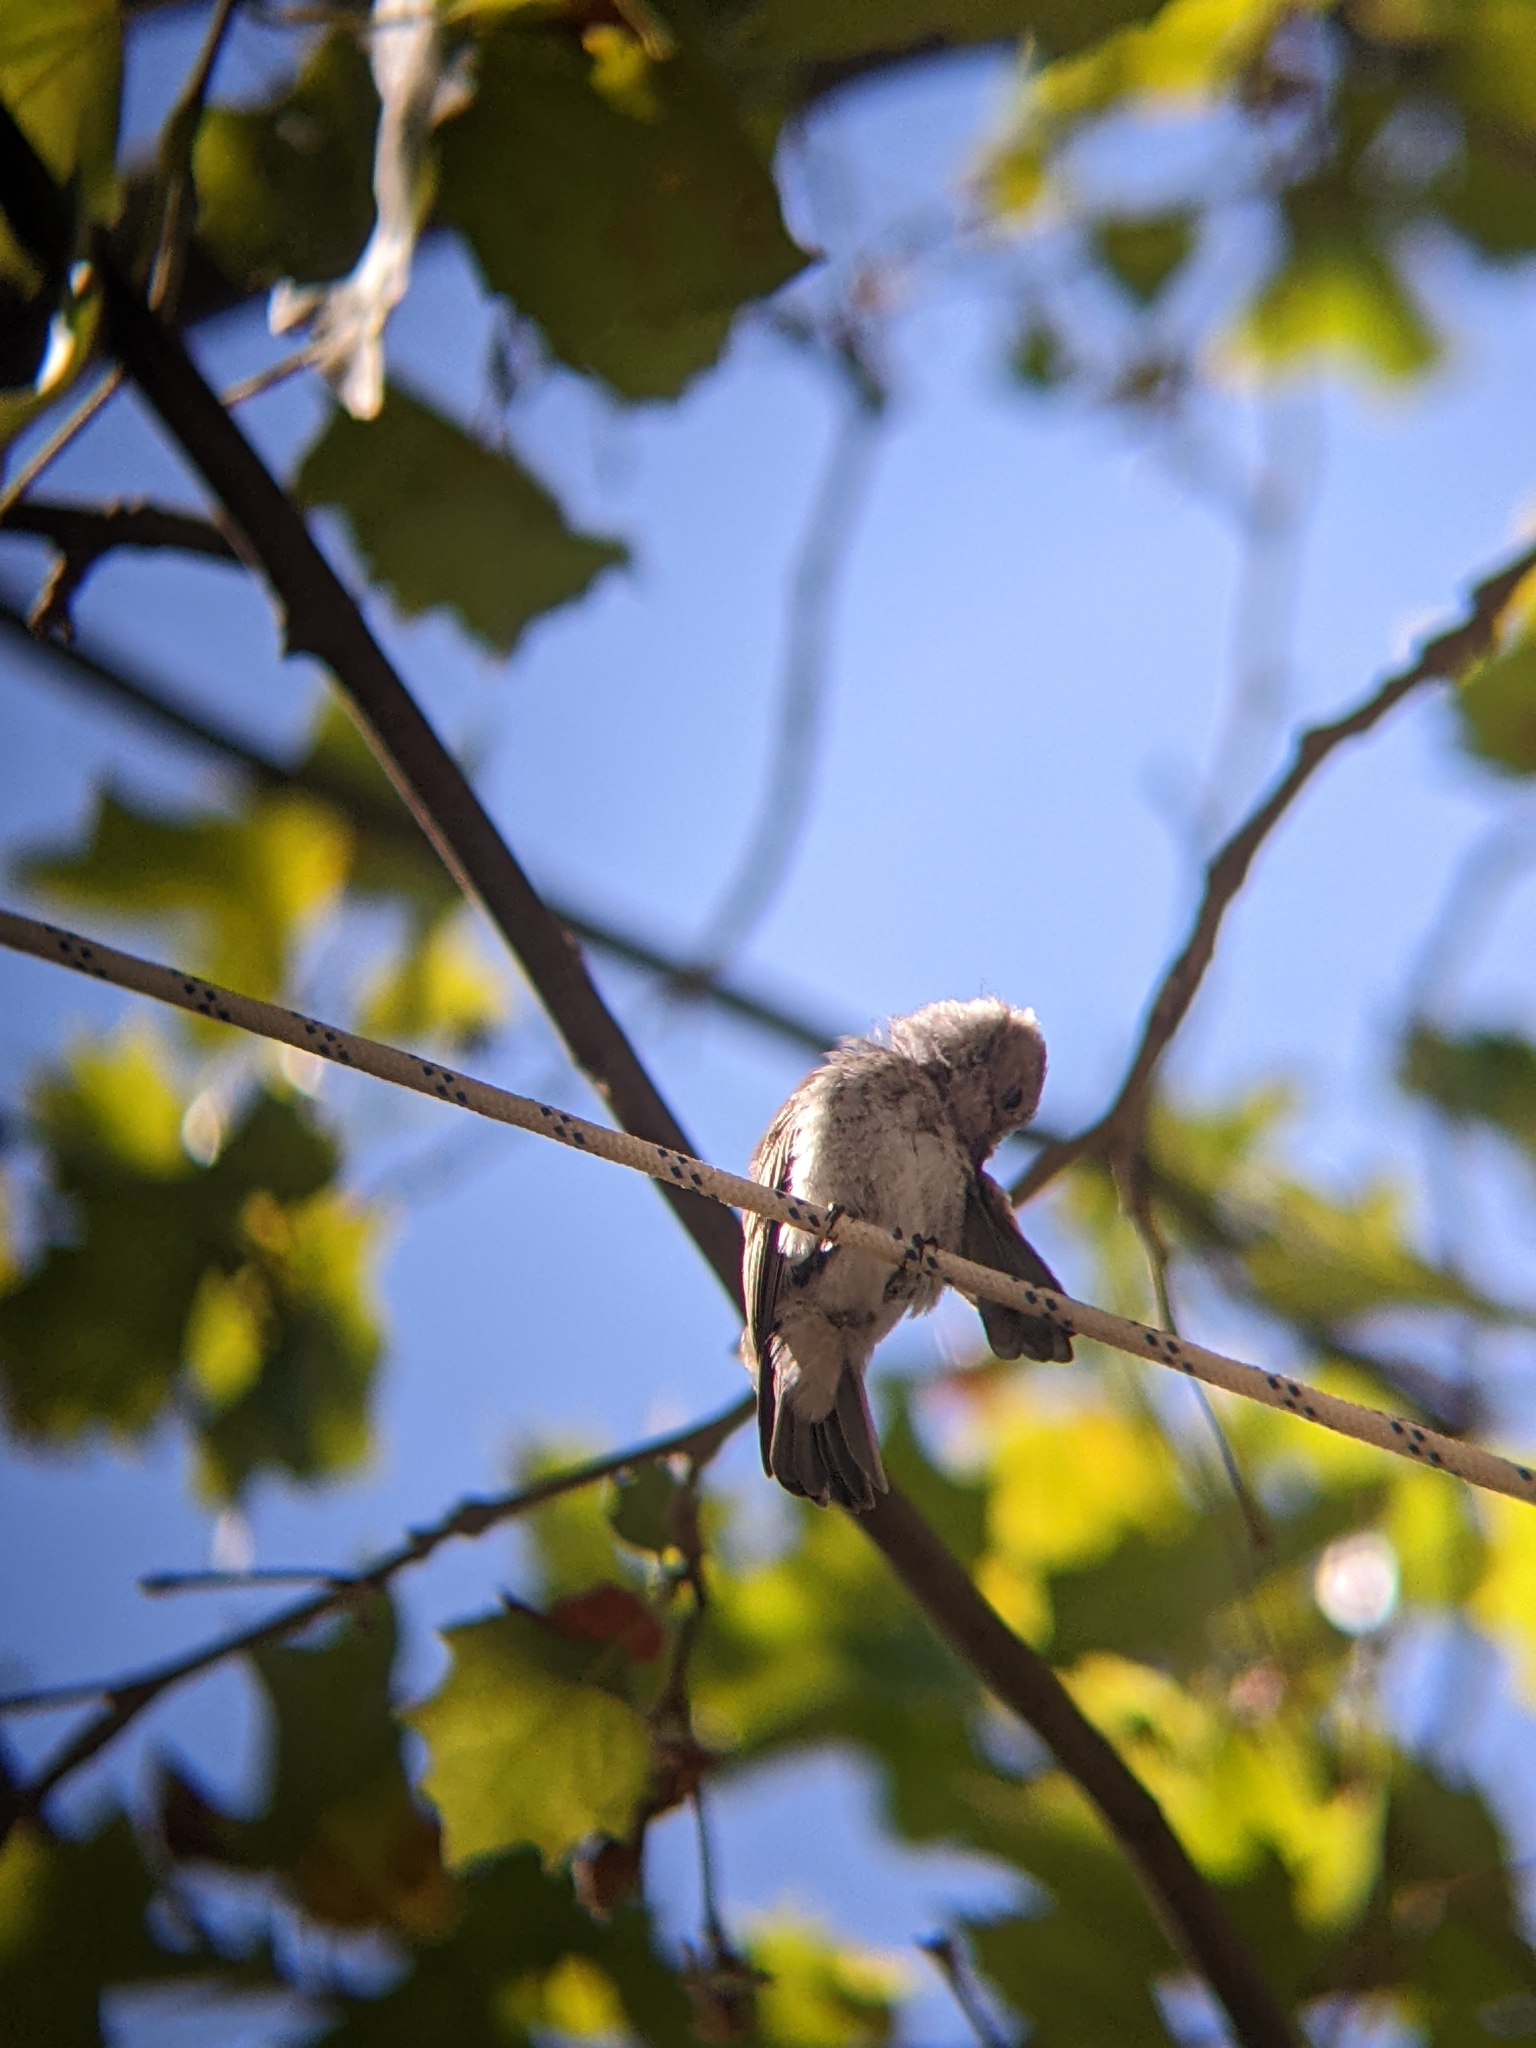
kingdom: Animalia
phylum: Chordata
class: Aves
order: Passeriformes
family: Muscicapidae
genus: Muscicapa
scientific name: Muscicapa striata
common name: Spotted flycatcher
